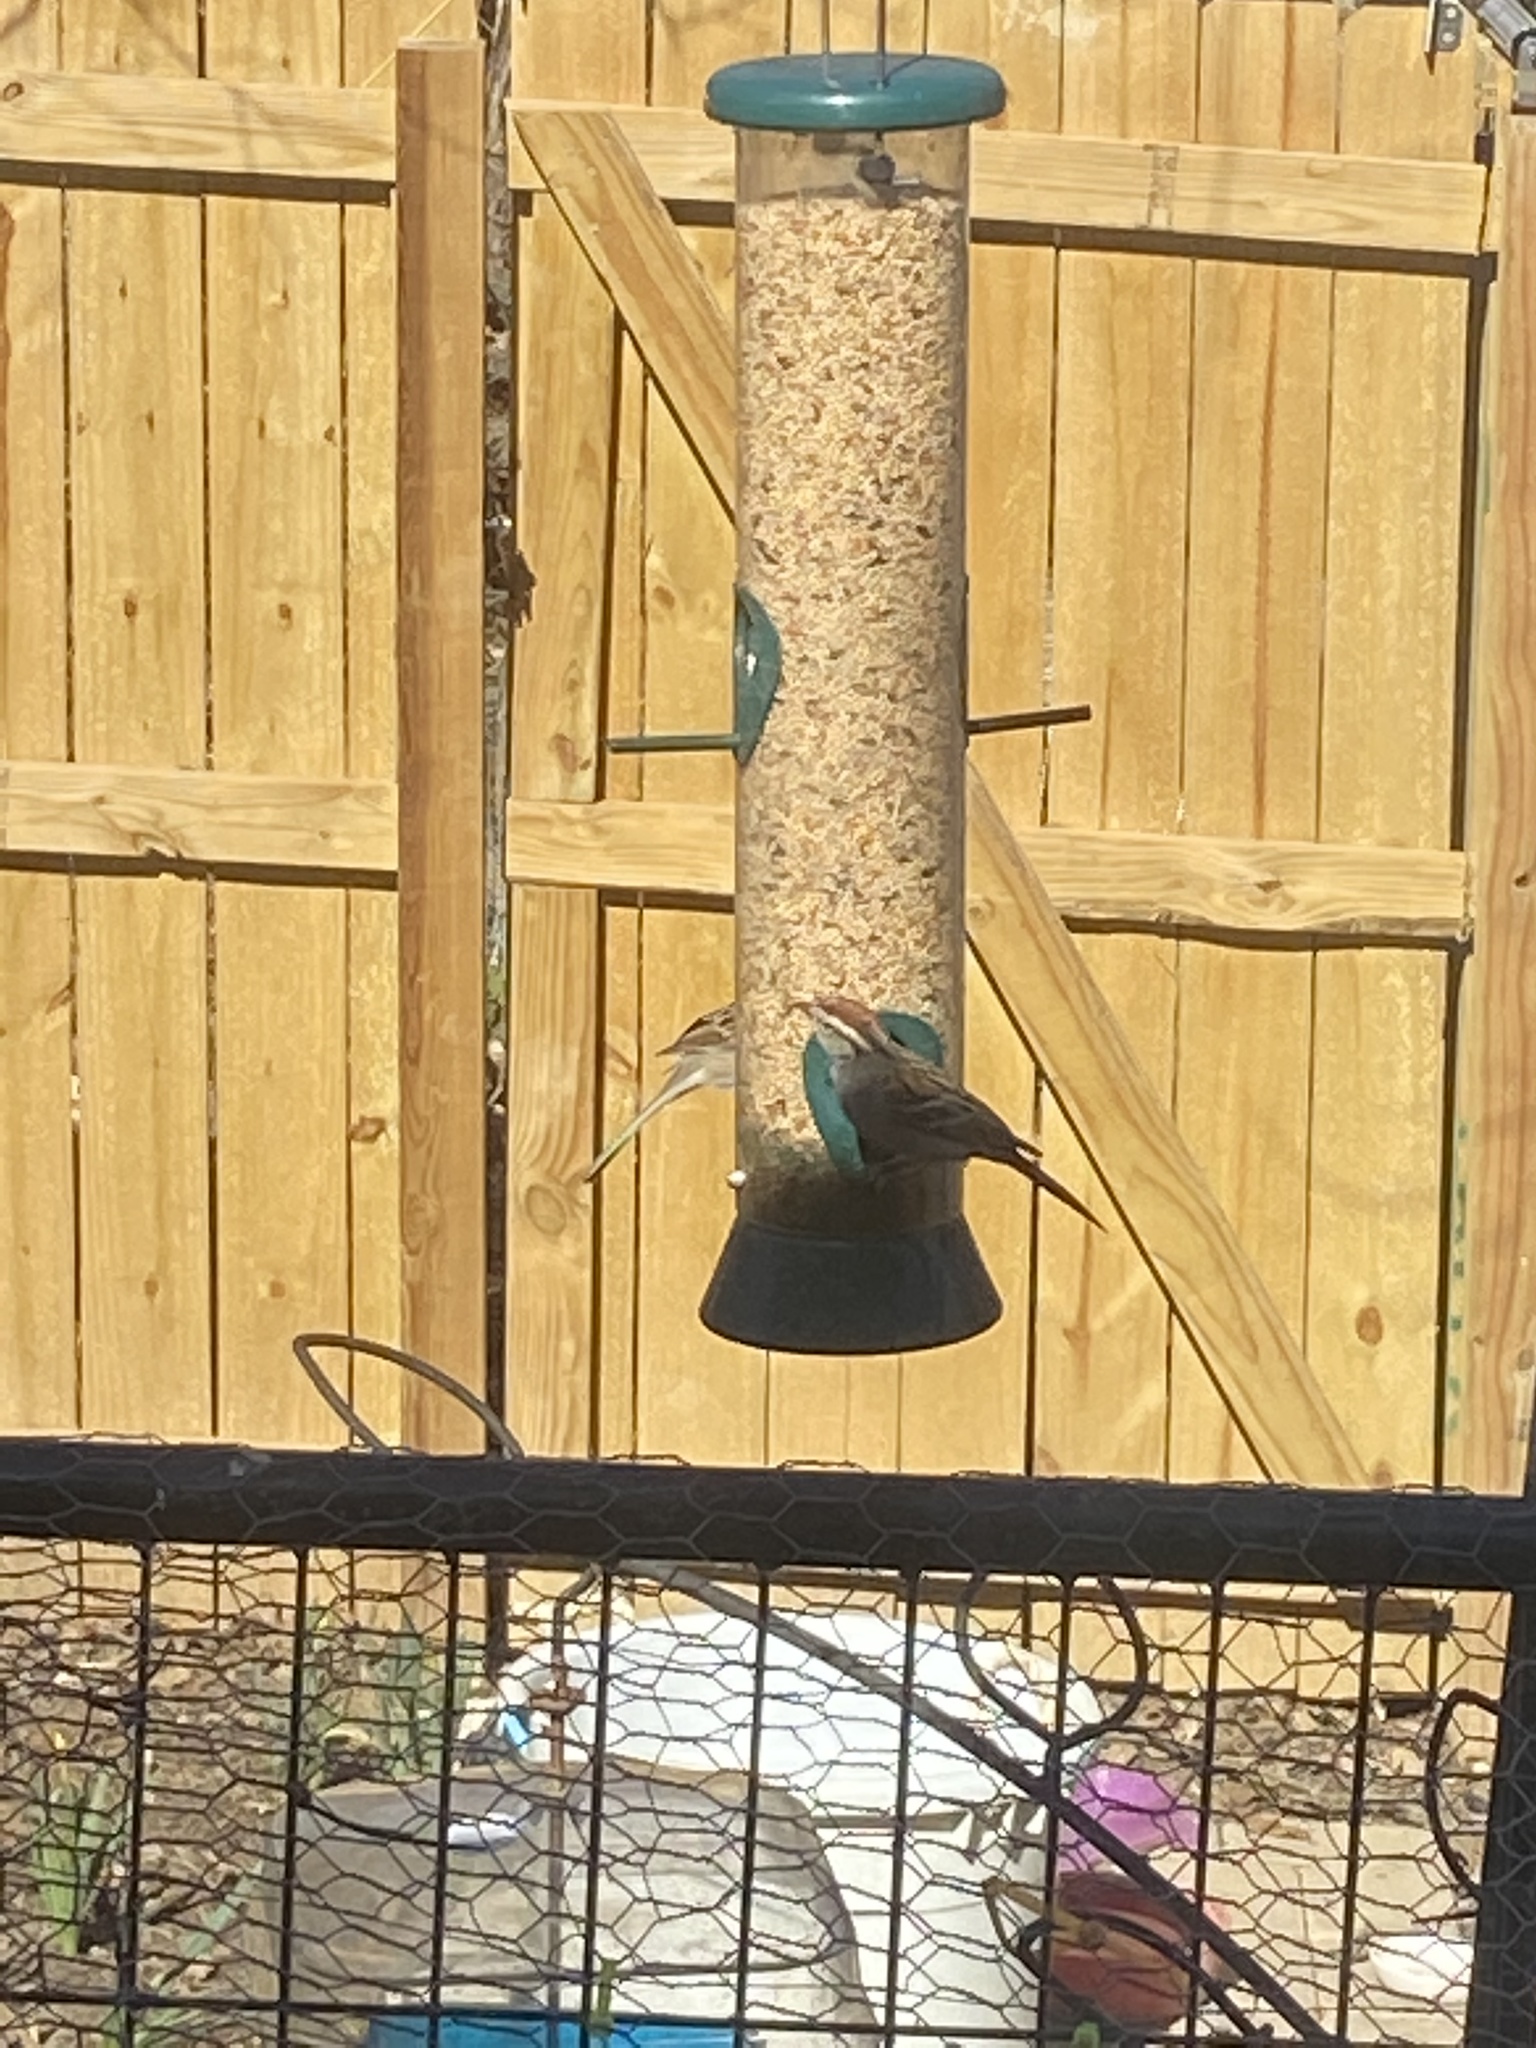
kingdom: Animalia
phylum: Chordata
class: Aves
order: Passeriformes
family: Passerellidae
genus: Spizella
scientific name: Spizella passerina
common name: Chipping sparrow
